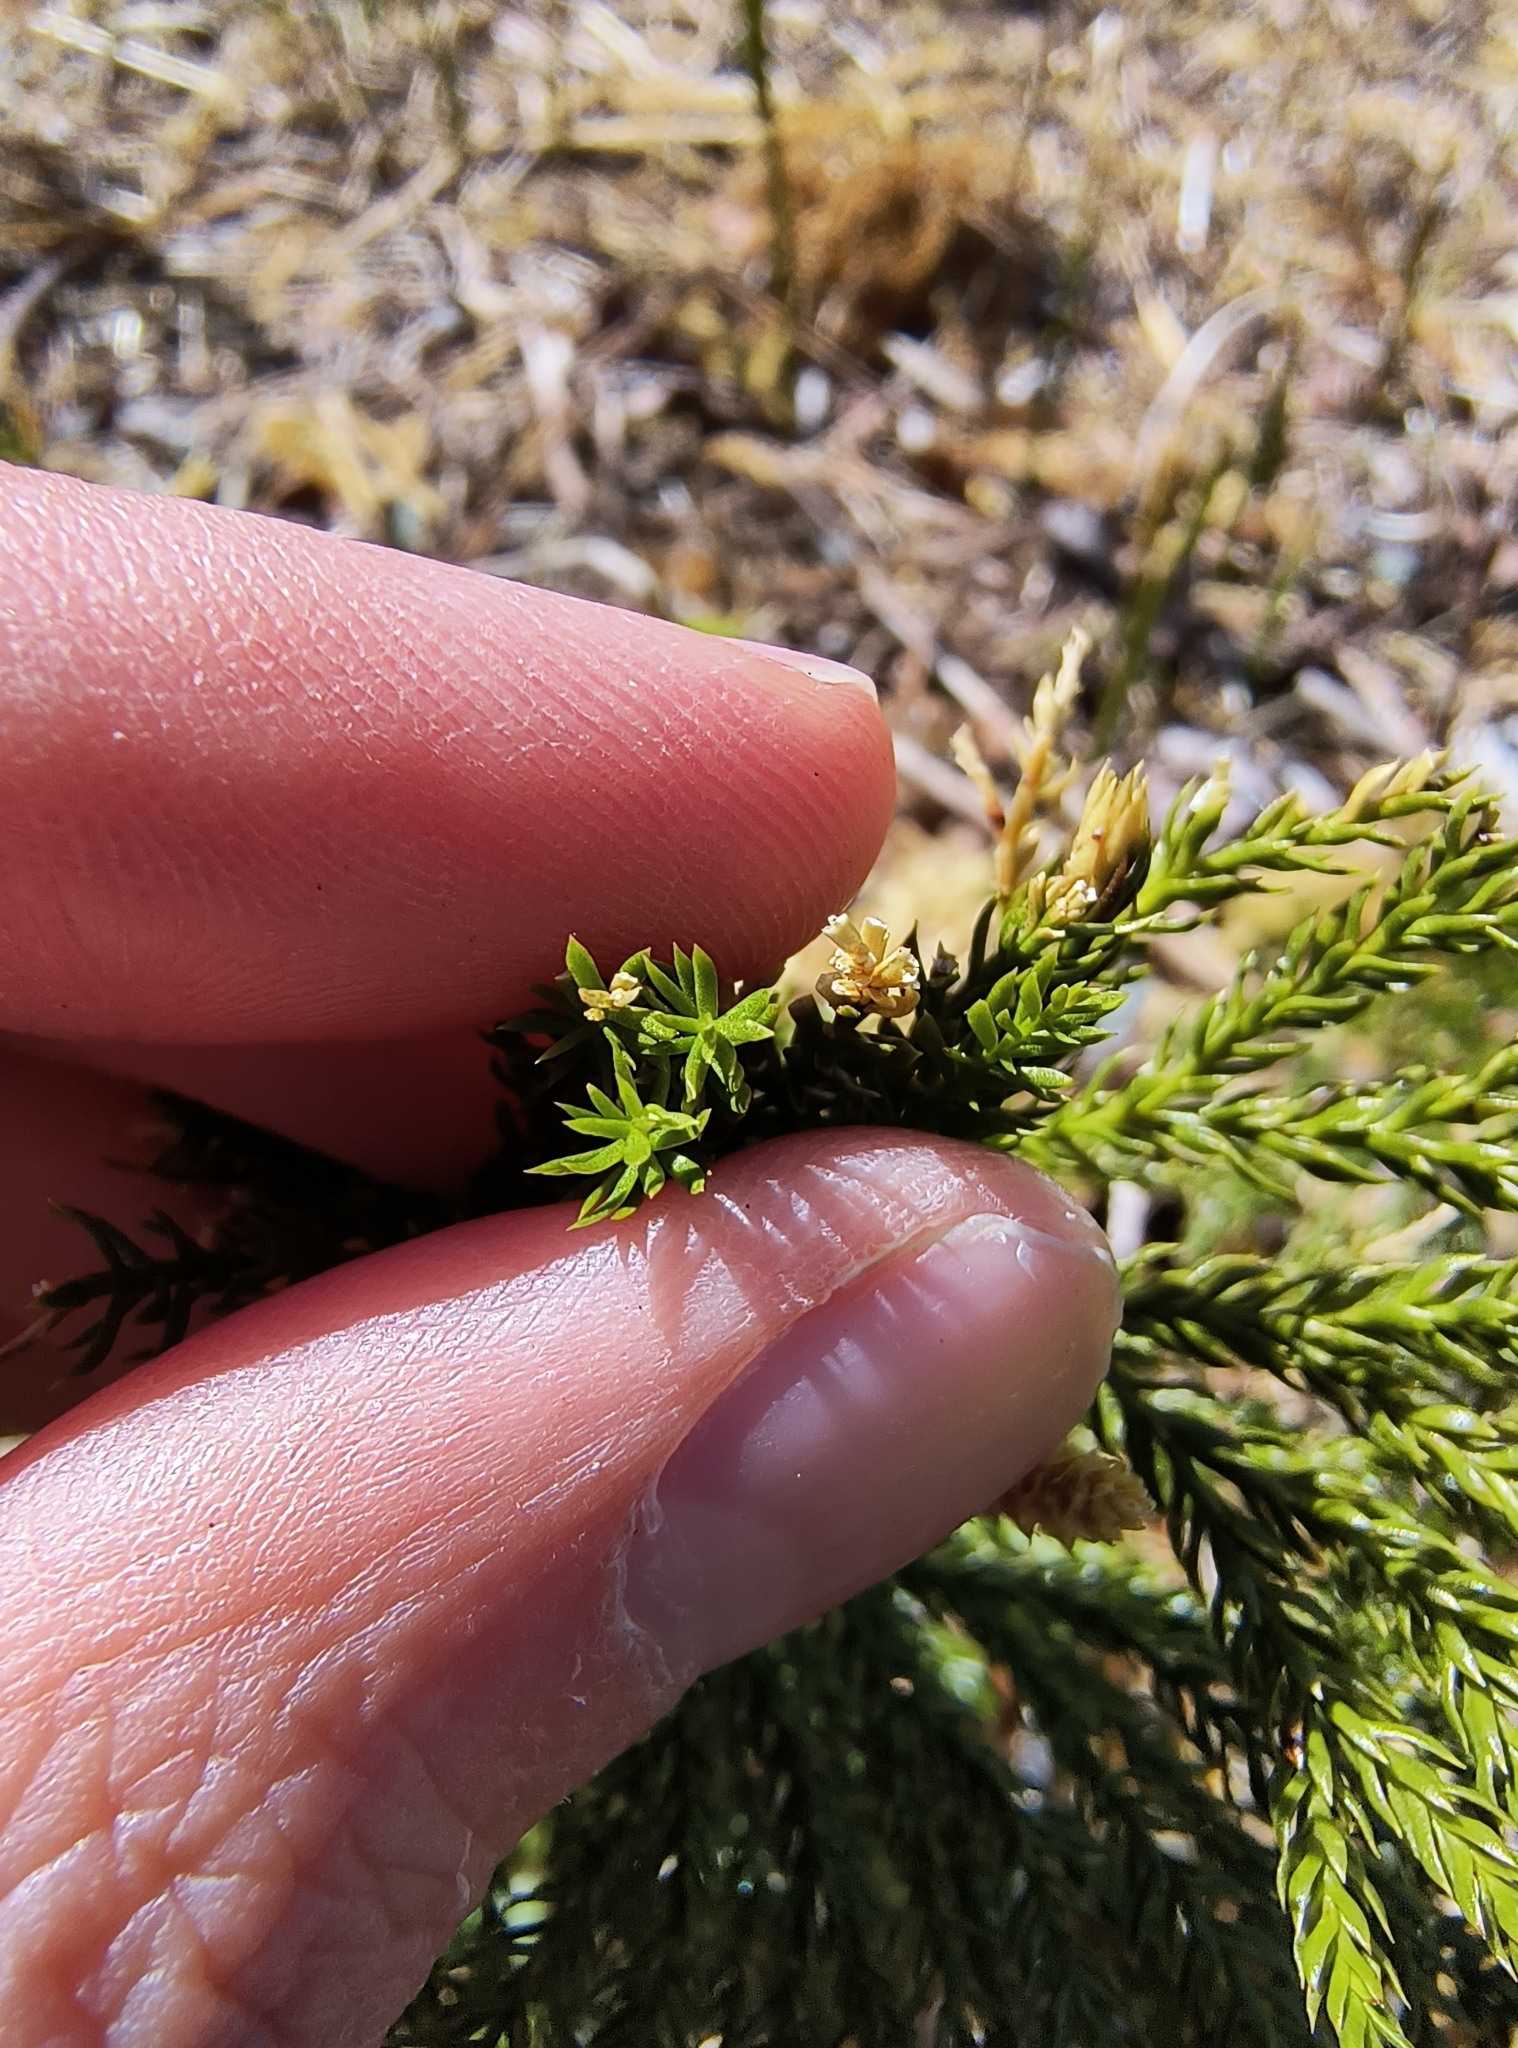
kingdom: Plantae
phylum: Tracheophyta
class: Lycopodiopsida
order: Lycopodiales
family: Lycopodiaceae
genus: Dendrolycopodium
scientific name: Dendrolycopodium obscurum
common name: Common ground-pine
